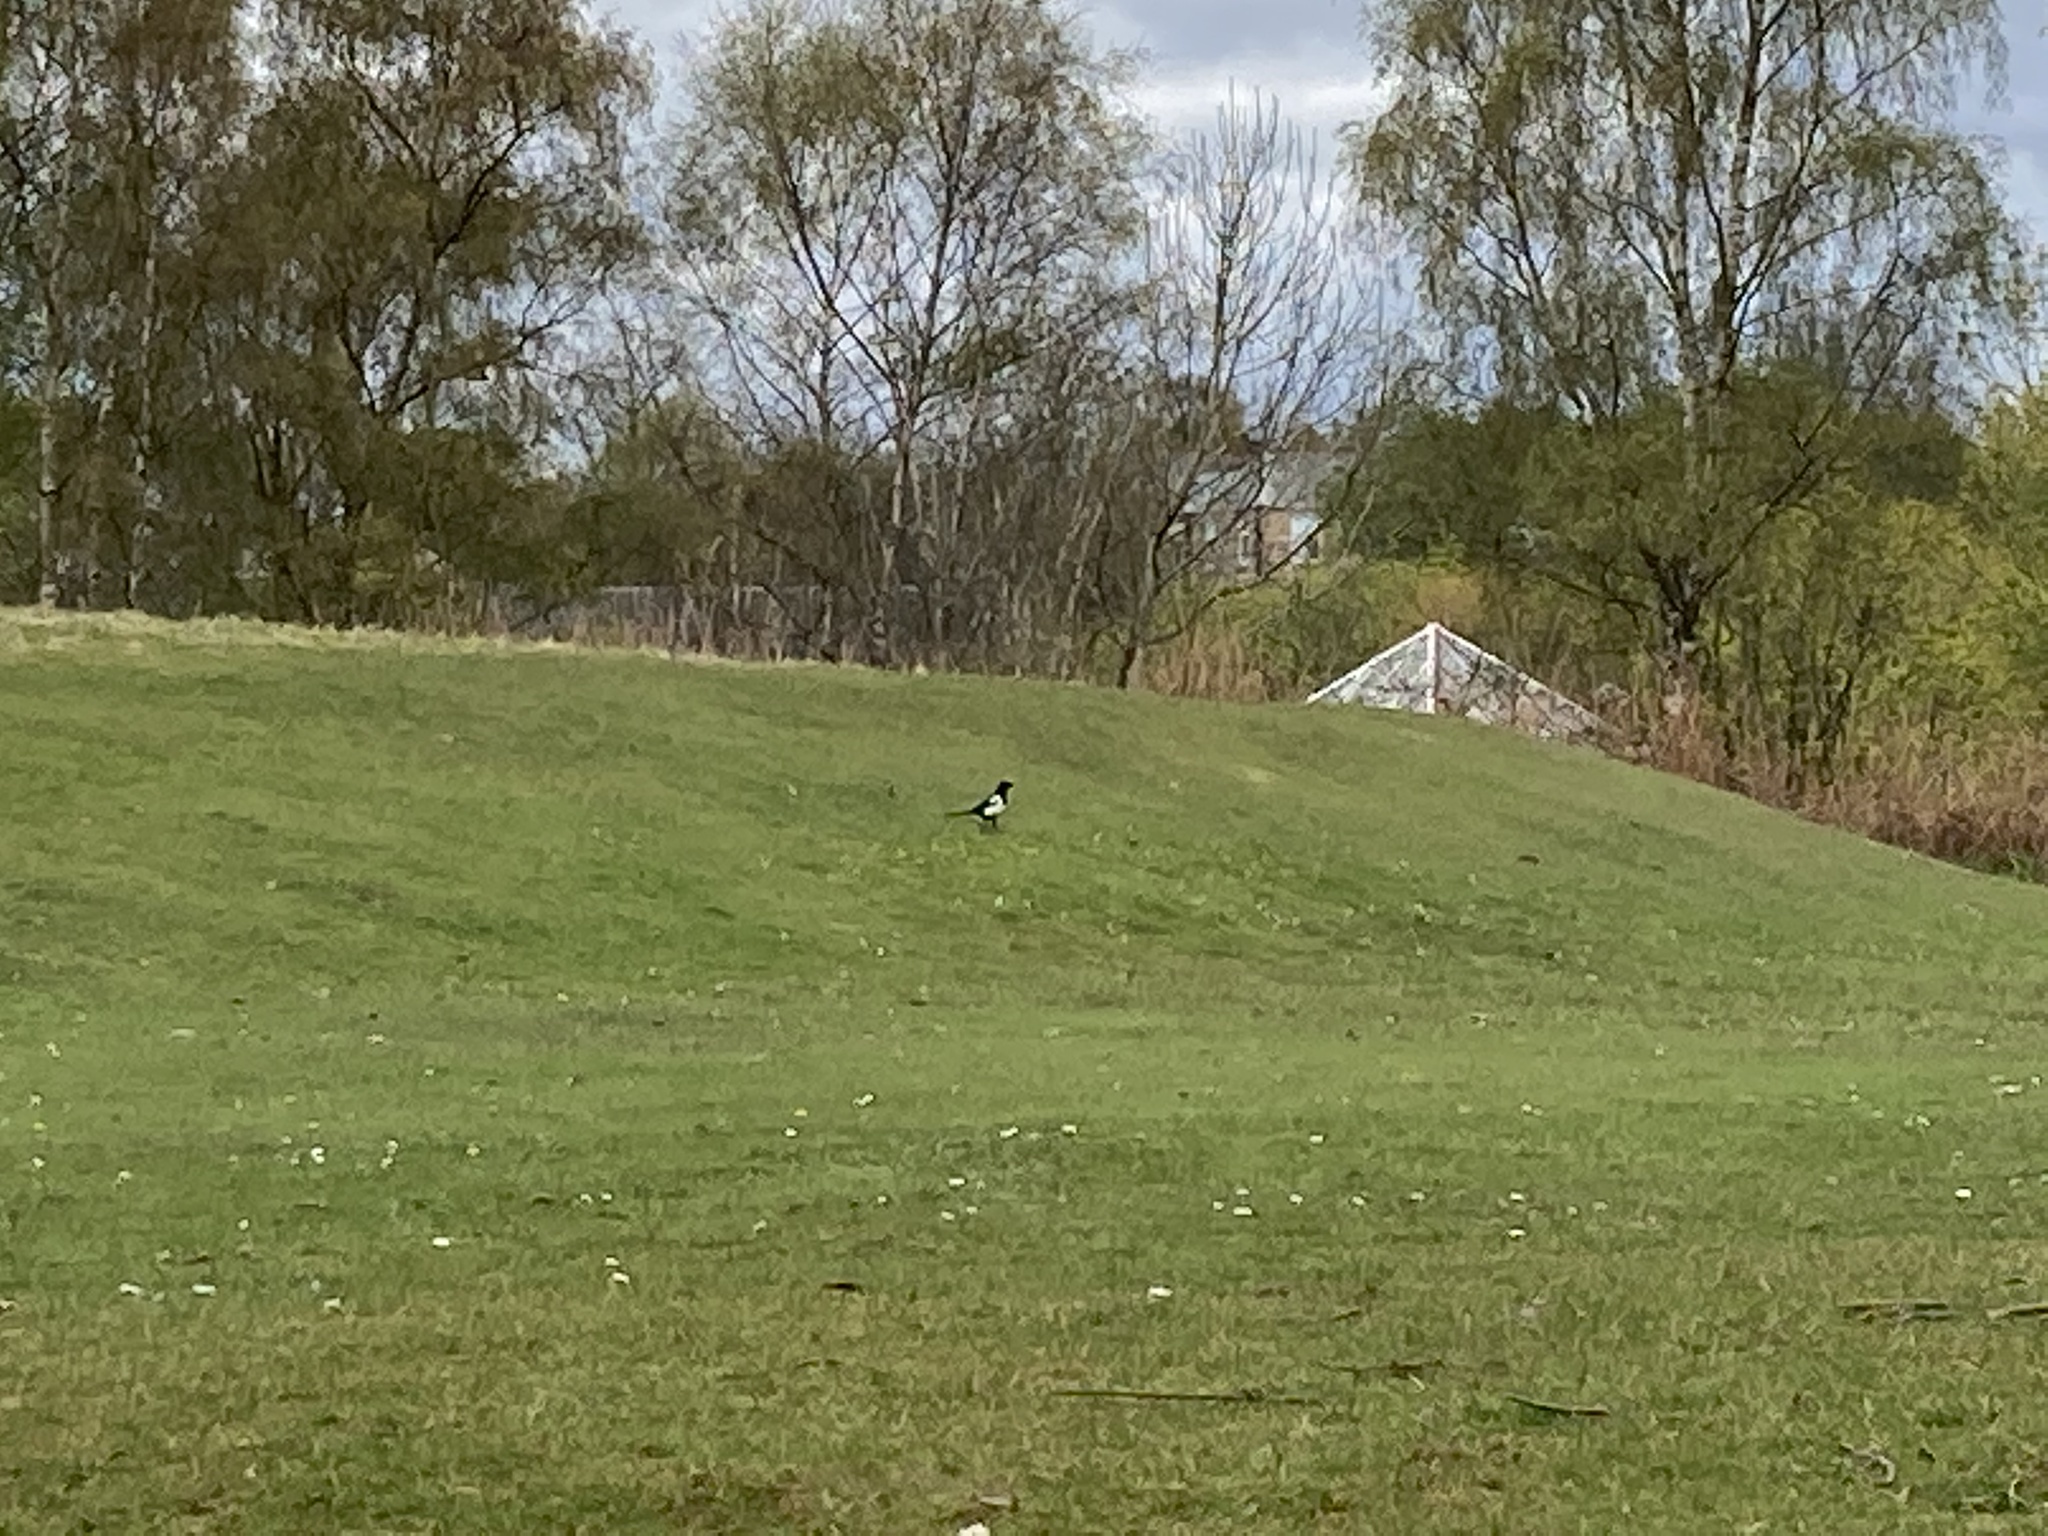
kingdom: Animalia
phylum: Chordata
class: Aves
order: Passeriformes
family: Corvidae
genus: Pica
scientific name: Pica pica
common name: Eurasian magpie
